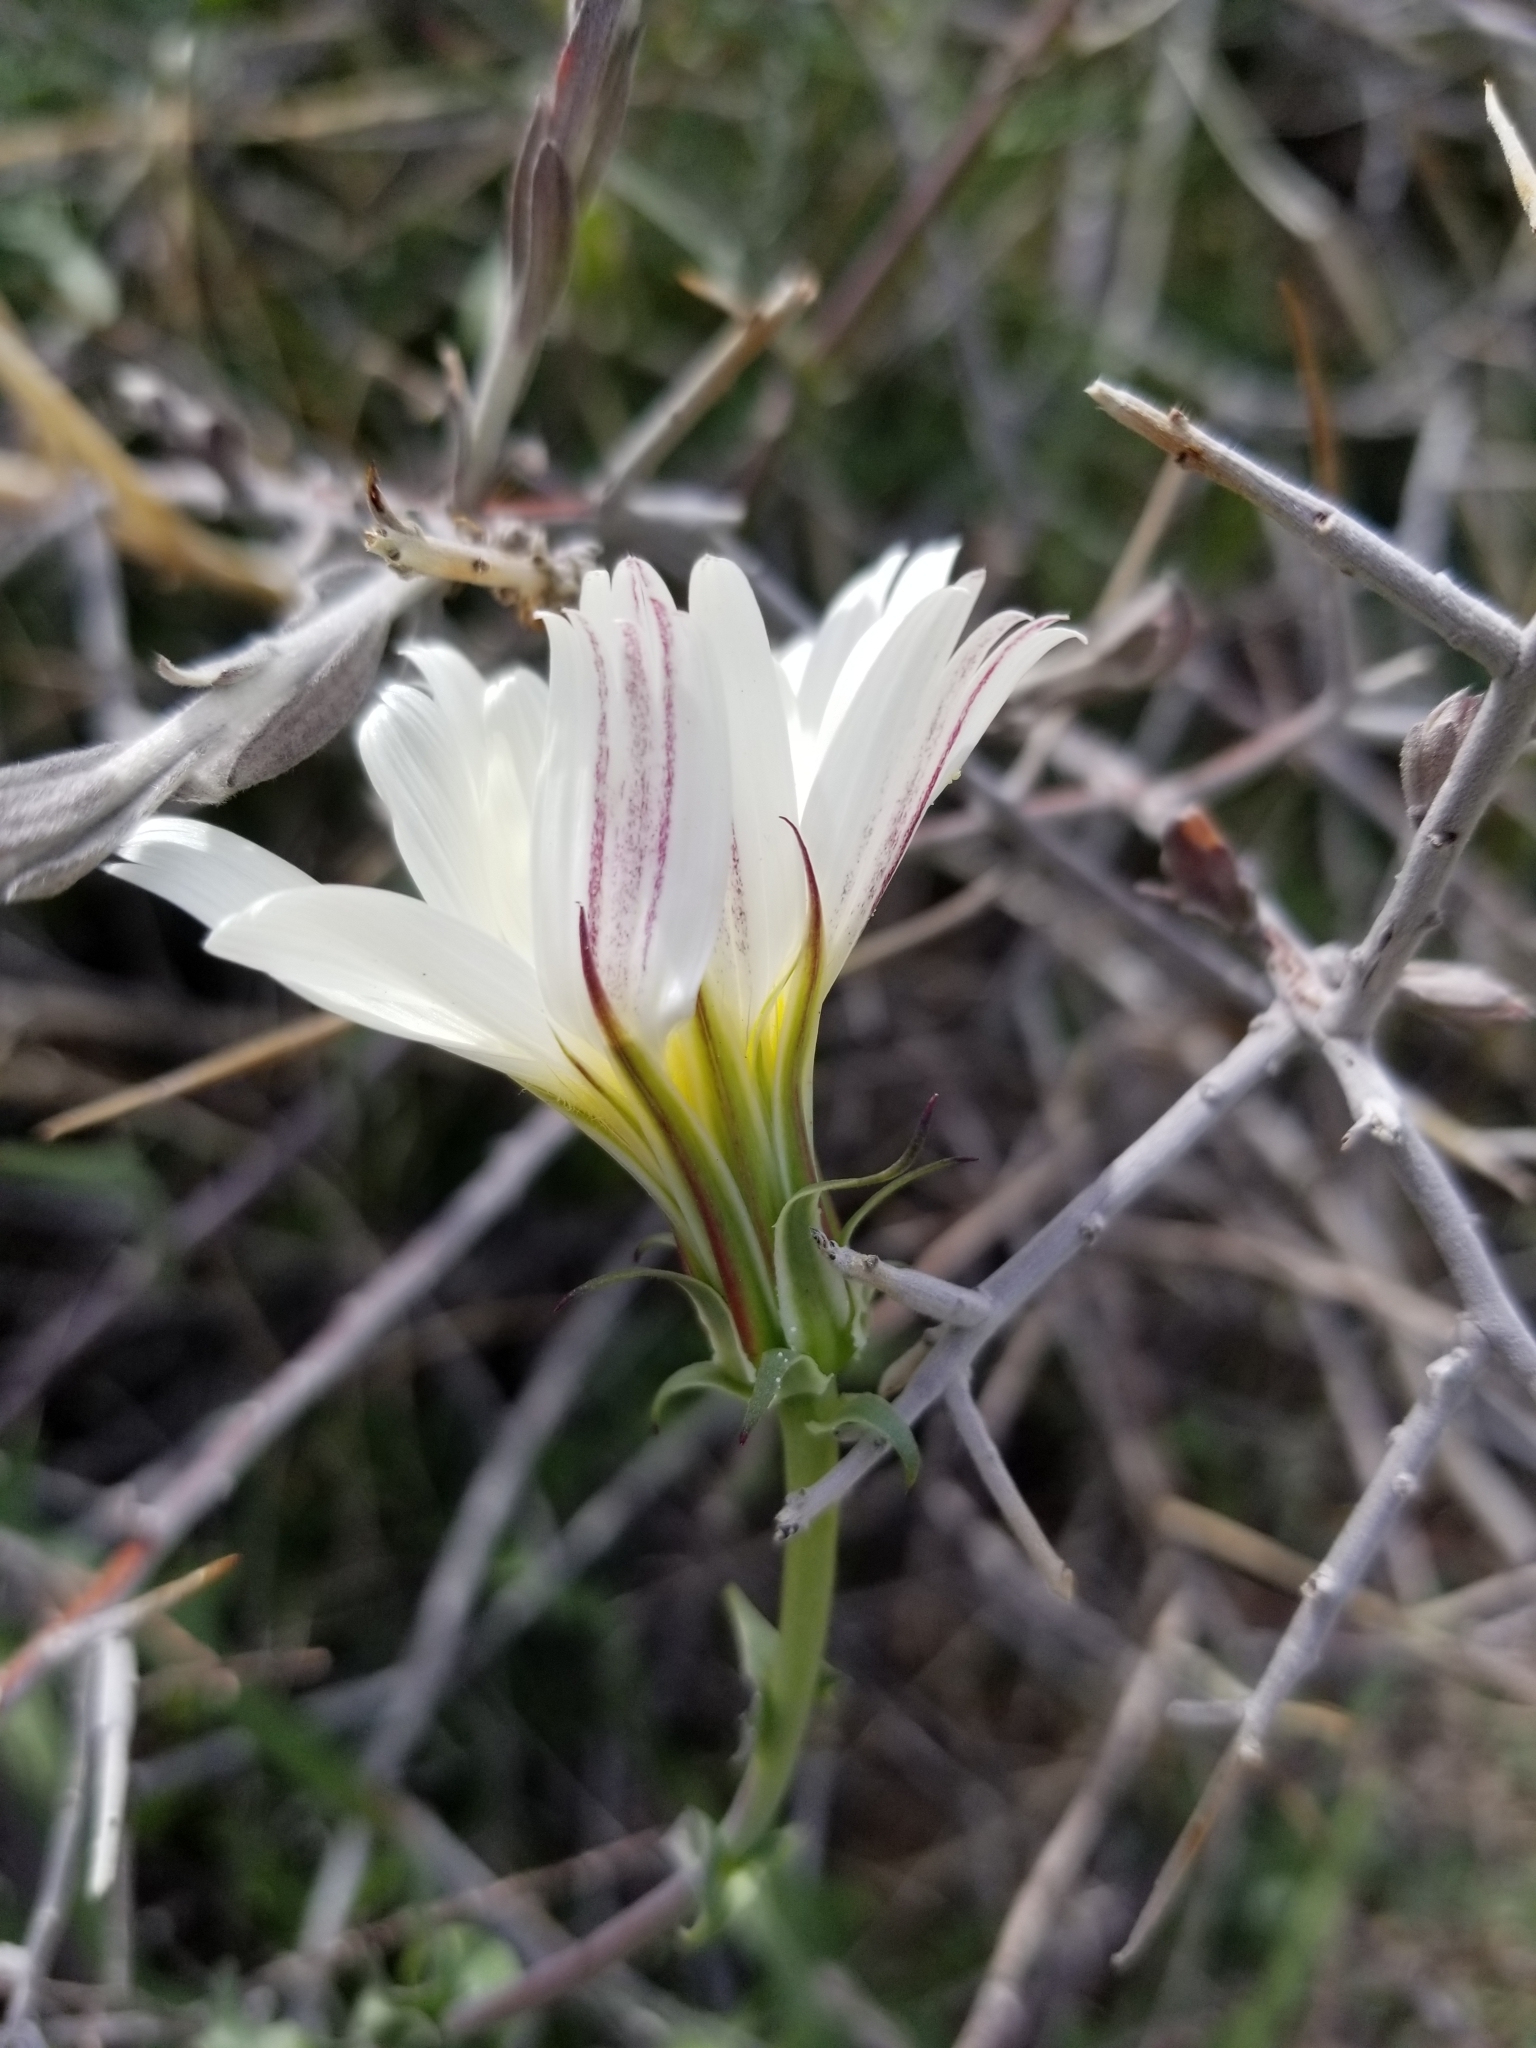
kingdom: Plantae
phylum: Tracheophyta
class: Magnoliopsida
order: Asterales
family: Asteraceae
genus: Rafinesquia
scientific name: Rafinesquia neomexicana
